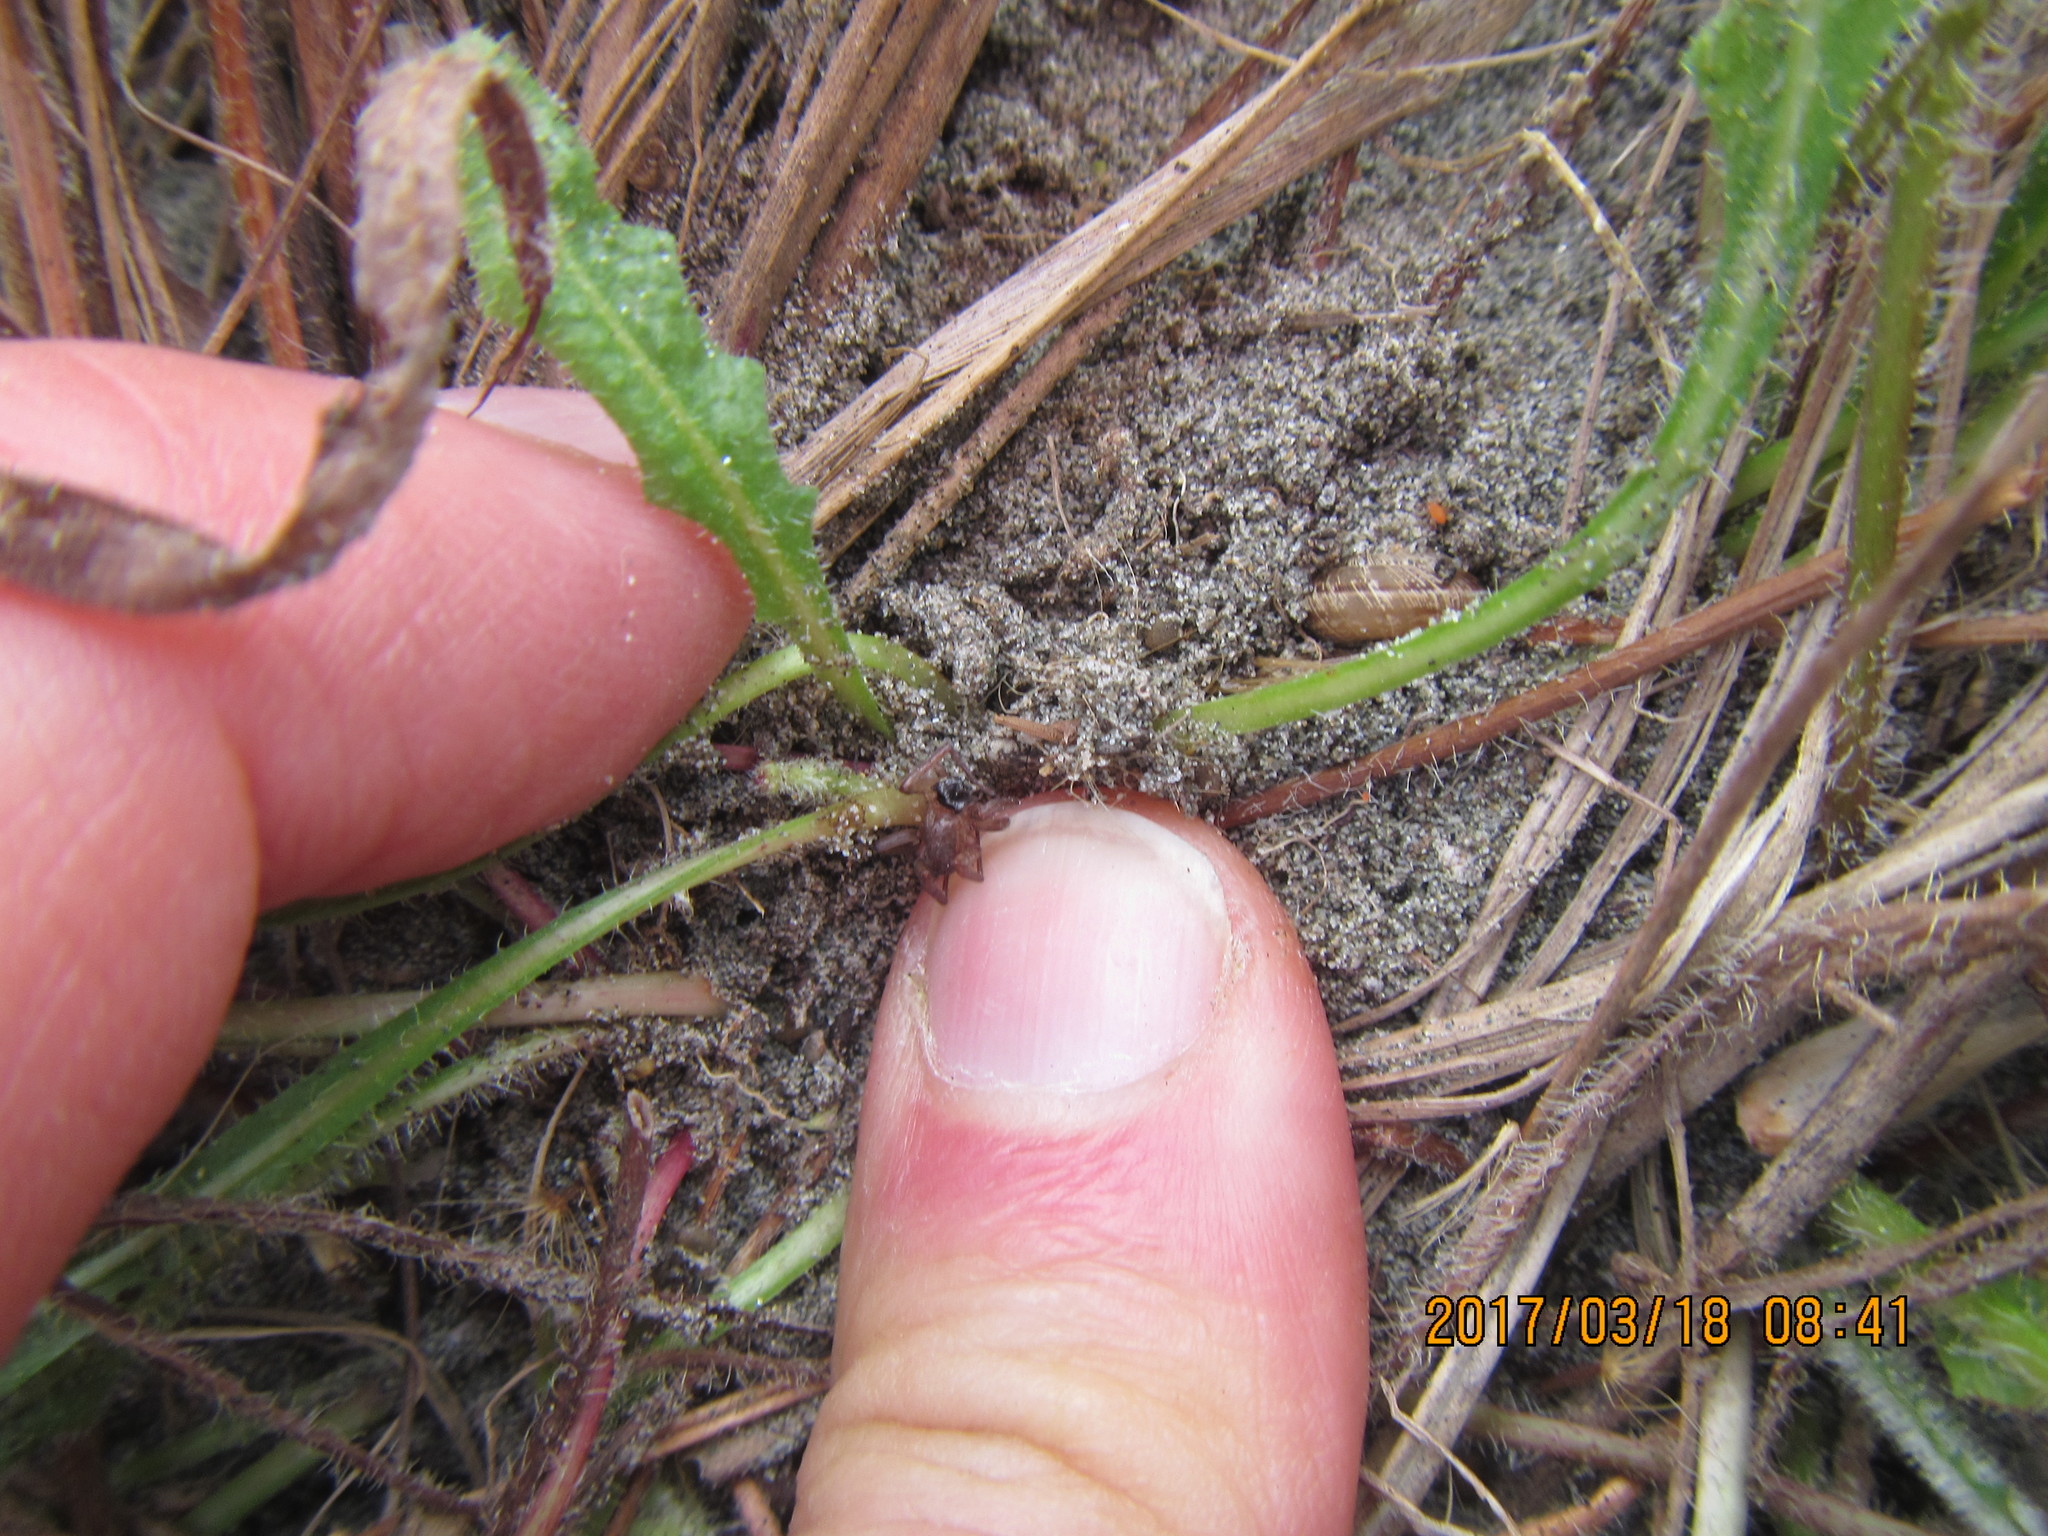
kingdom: Animalia
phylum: Arthropoda
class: Arachnida
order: Araneae
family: Thomisidae
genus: Sidymella
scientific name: Sidymella trapezia
